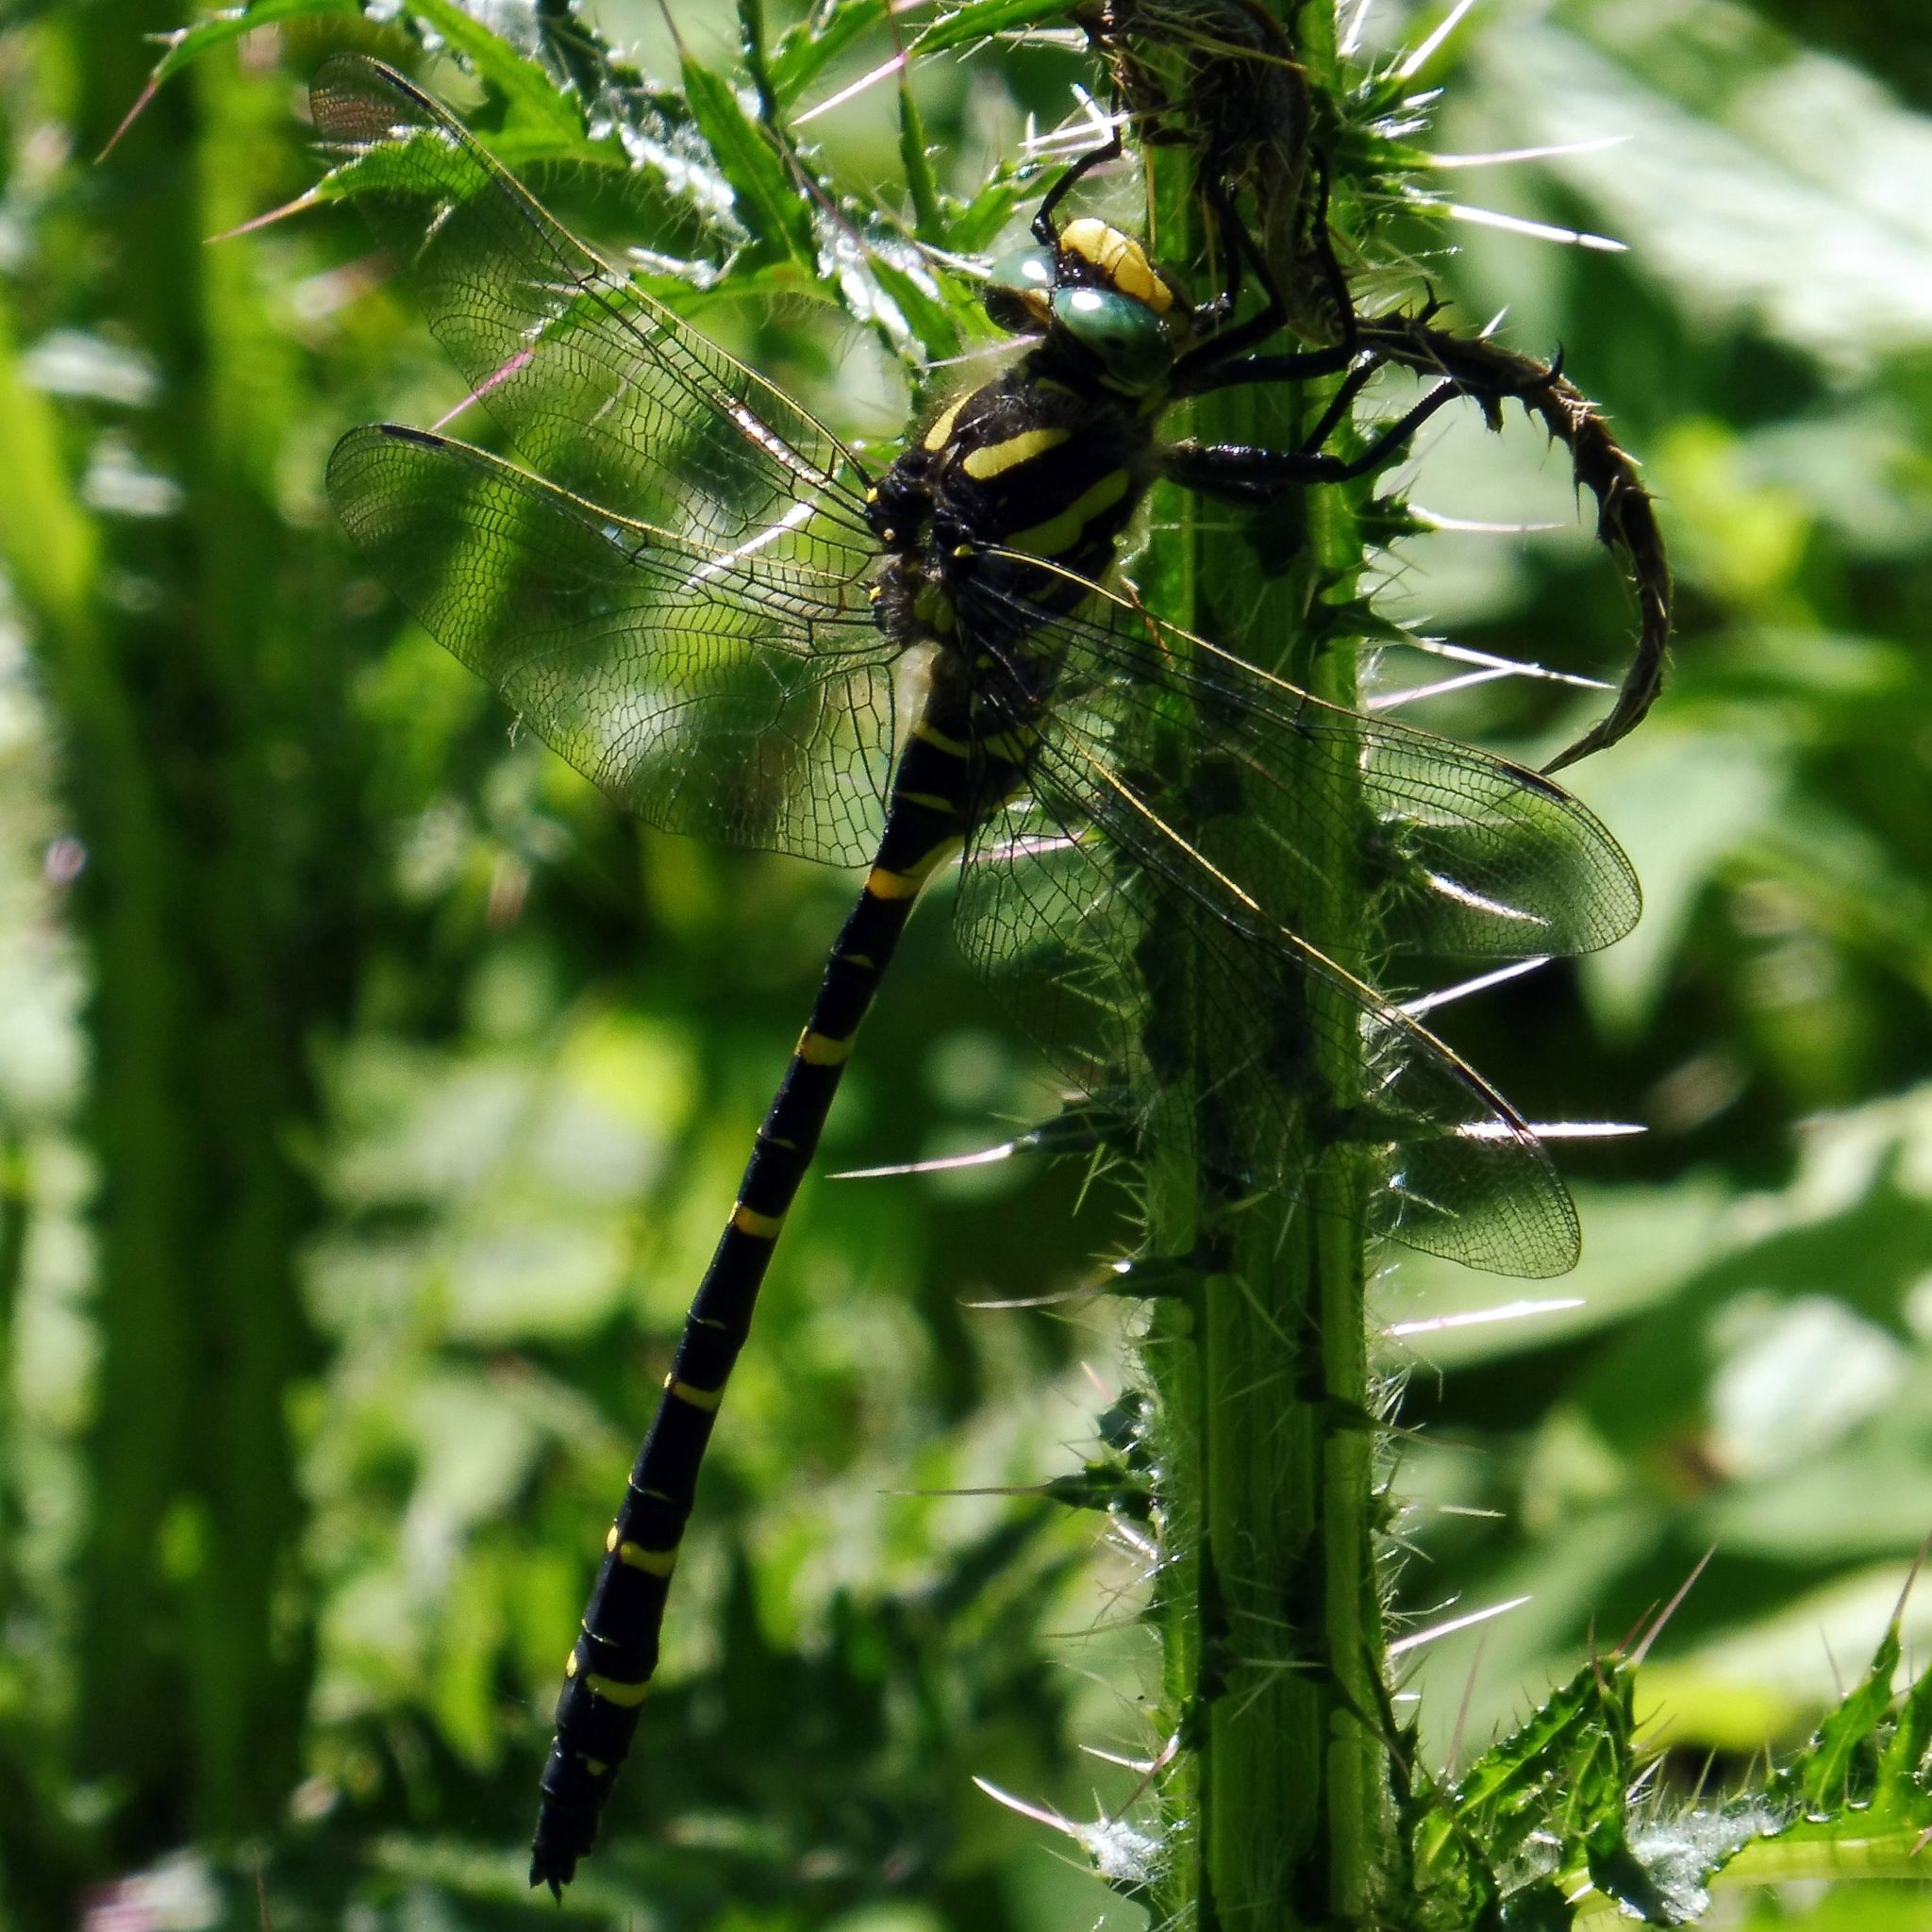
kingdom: Animalia
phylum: Arthropoda
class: Insecta
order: Odonata
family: Cordulegastridae
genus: Cordulegaster
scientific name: Cordulegaster boltonii
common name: Golden-ringed dragonfly
